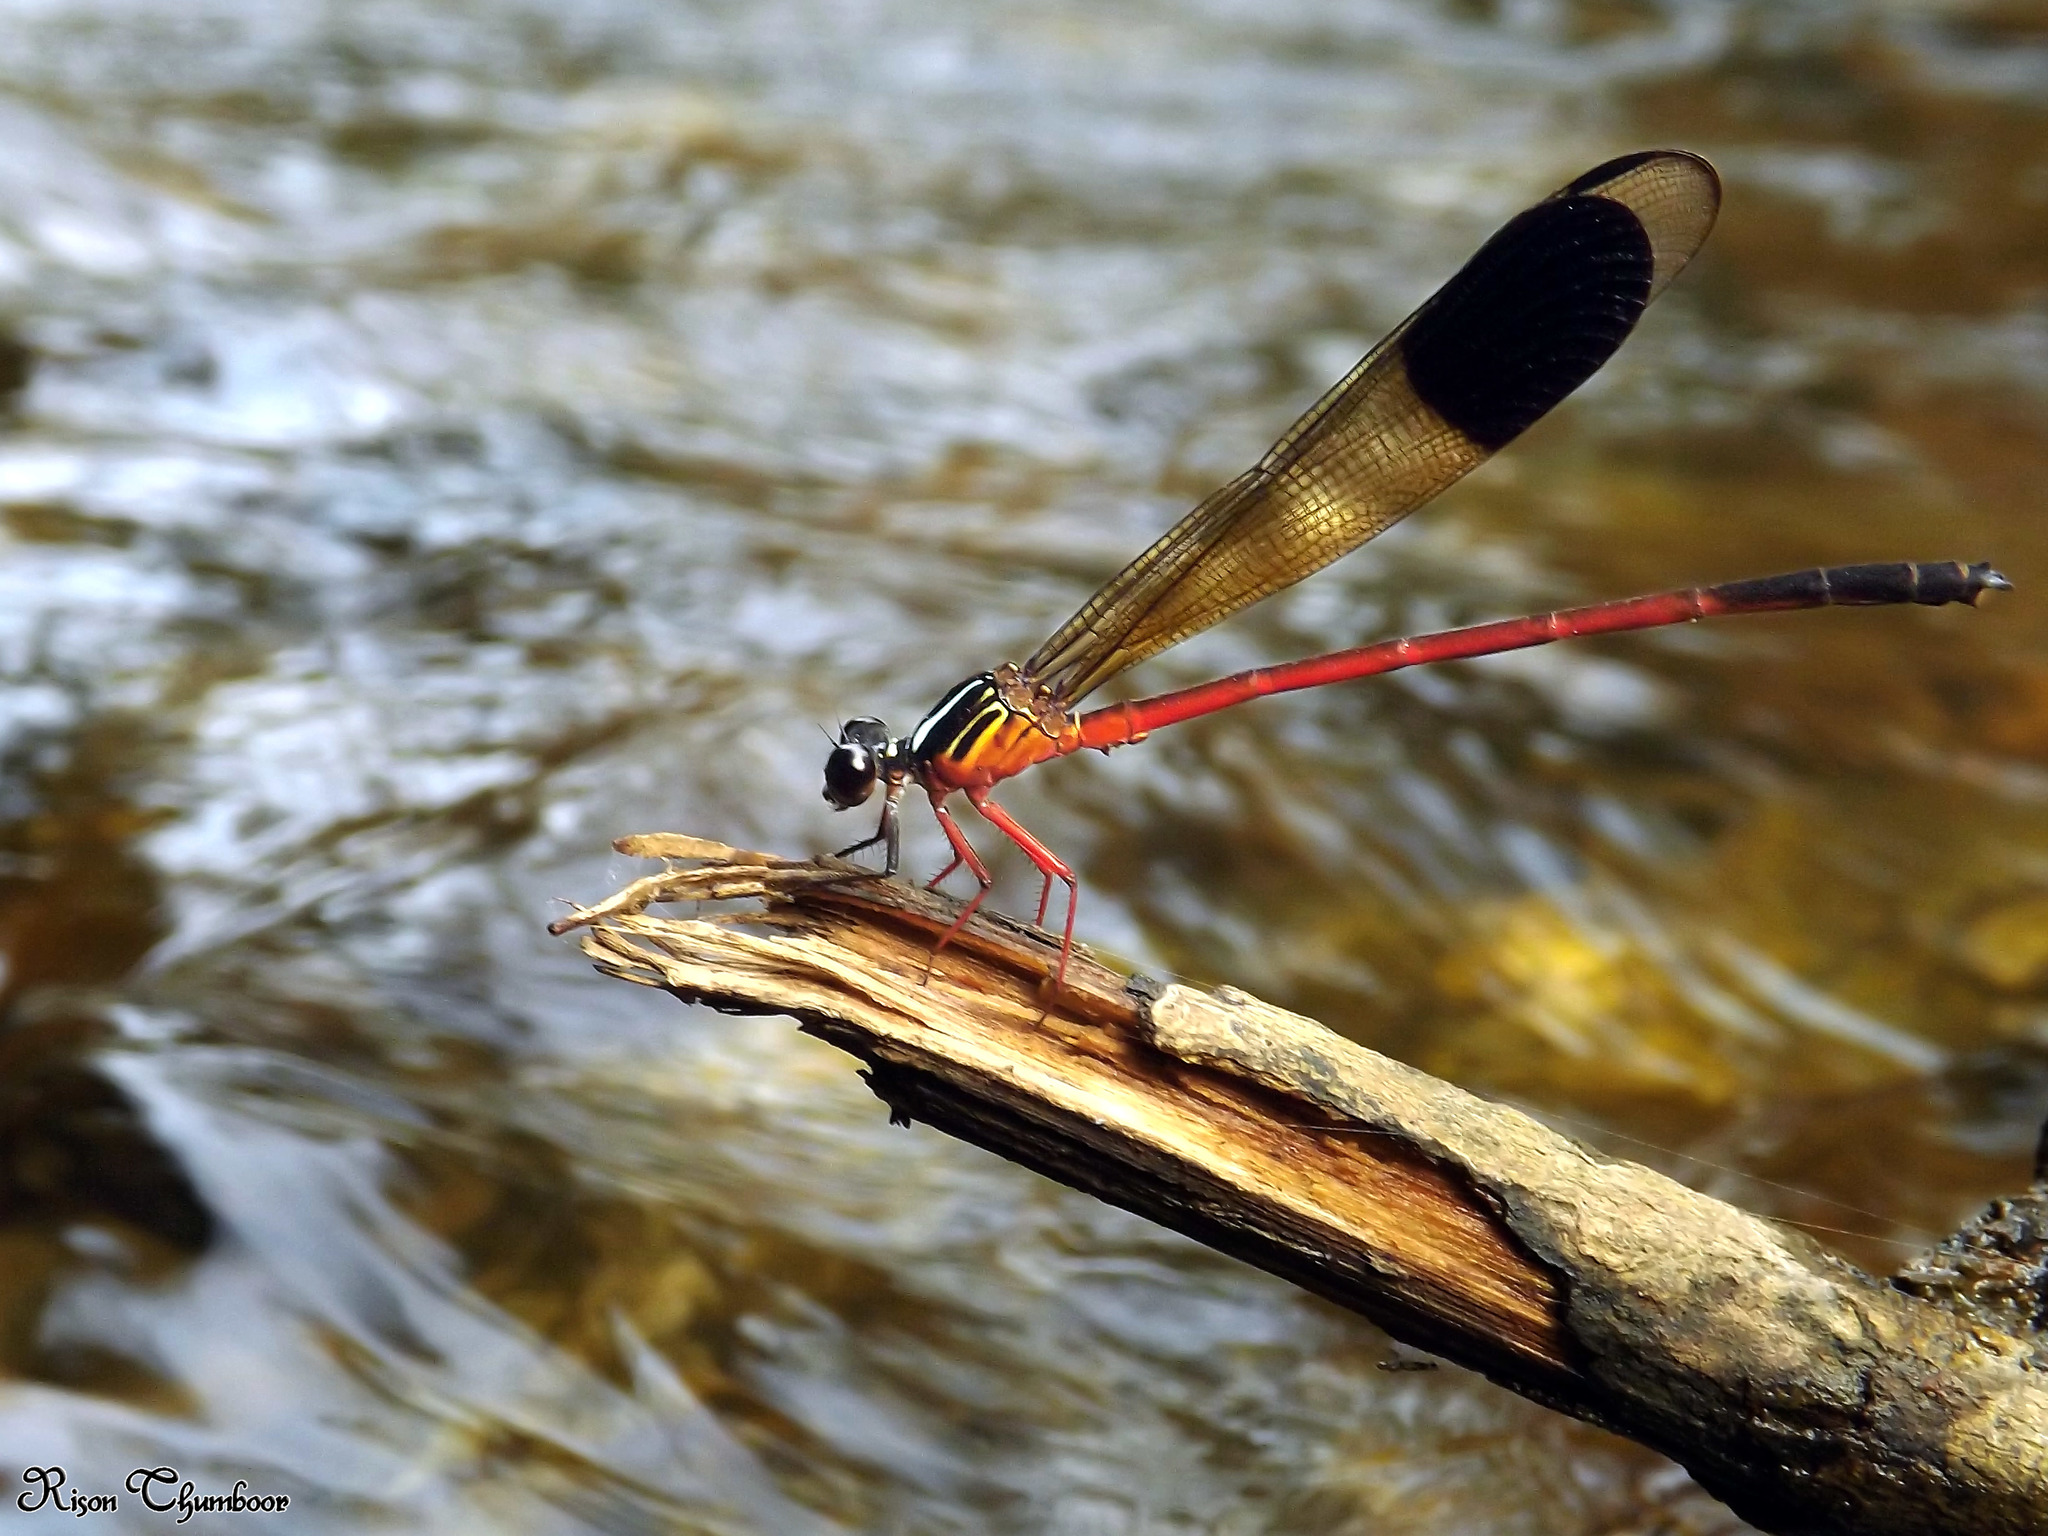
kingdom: Animalia
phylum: Arthropoda
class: Insecta
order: Odonata
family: Euphaeidae
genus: Euphaea
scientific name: Euphaea fraseri
